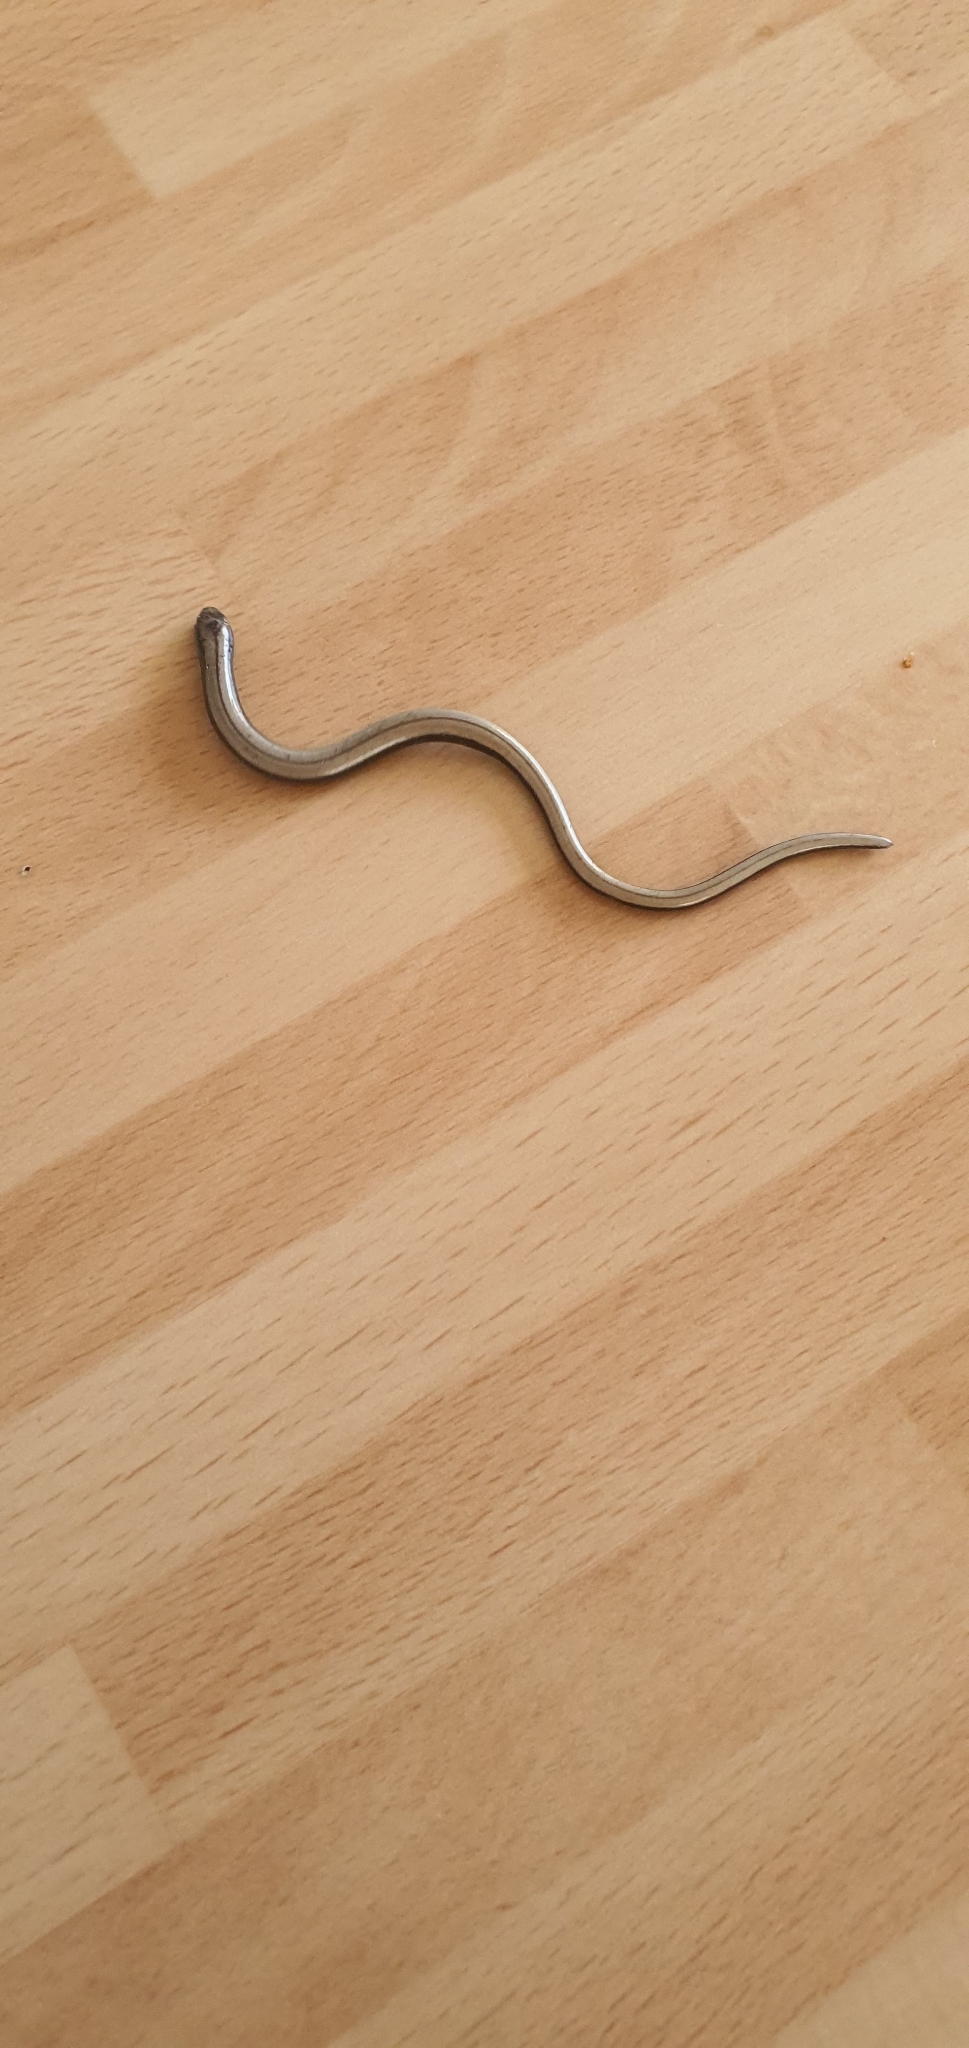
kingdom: Animalia
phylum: Chordata
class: Squamata
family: Anguidae
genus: Anguis
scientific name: Anguis fragilis
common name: Slow worm
